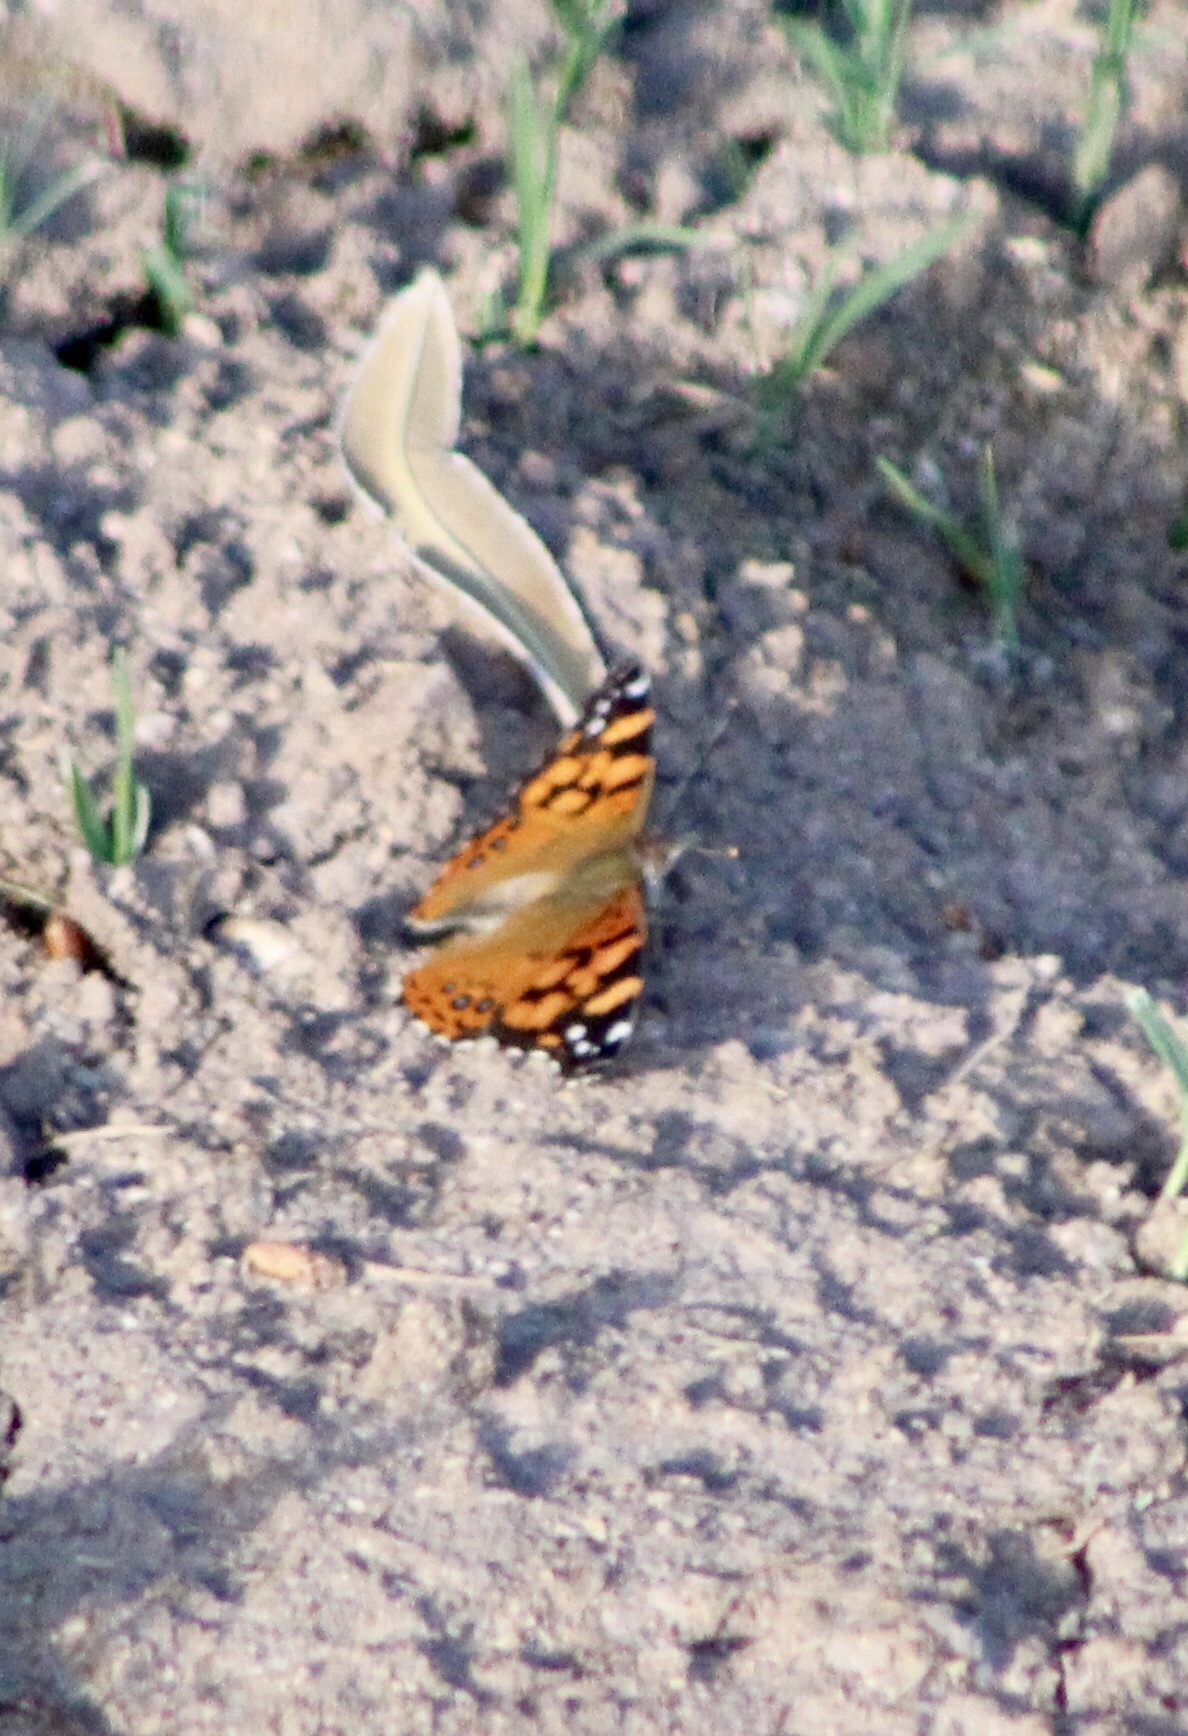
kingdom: Animalia
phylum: Arthropoda
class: Insecta
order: Lepidoptera
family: Nymphalidae
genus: Vanessa
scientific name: Vanessa annabella
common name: West coast lady
